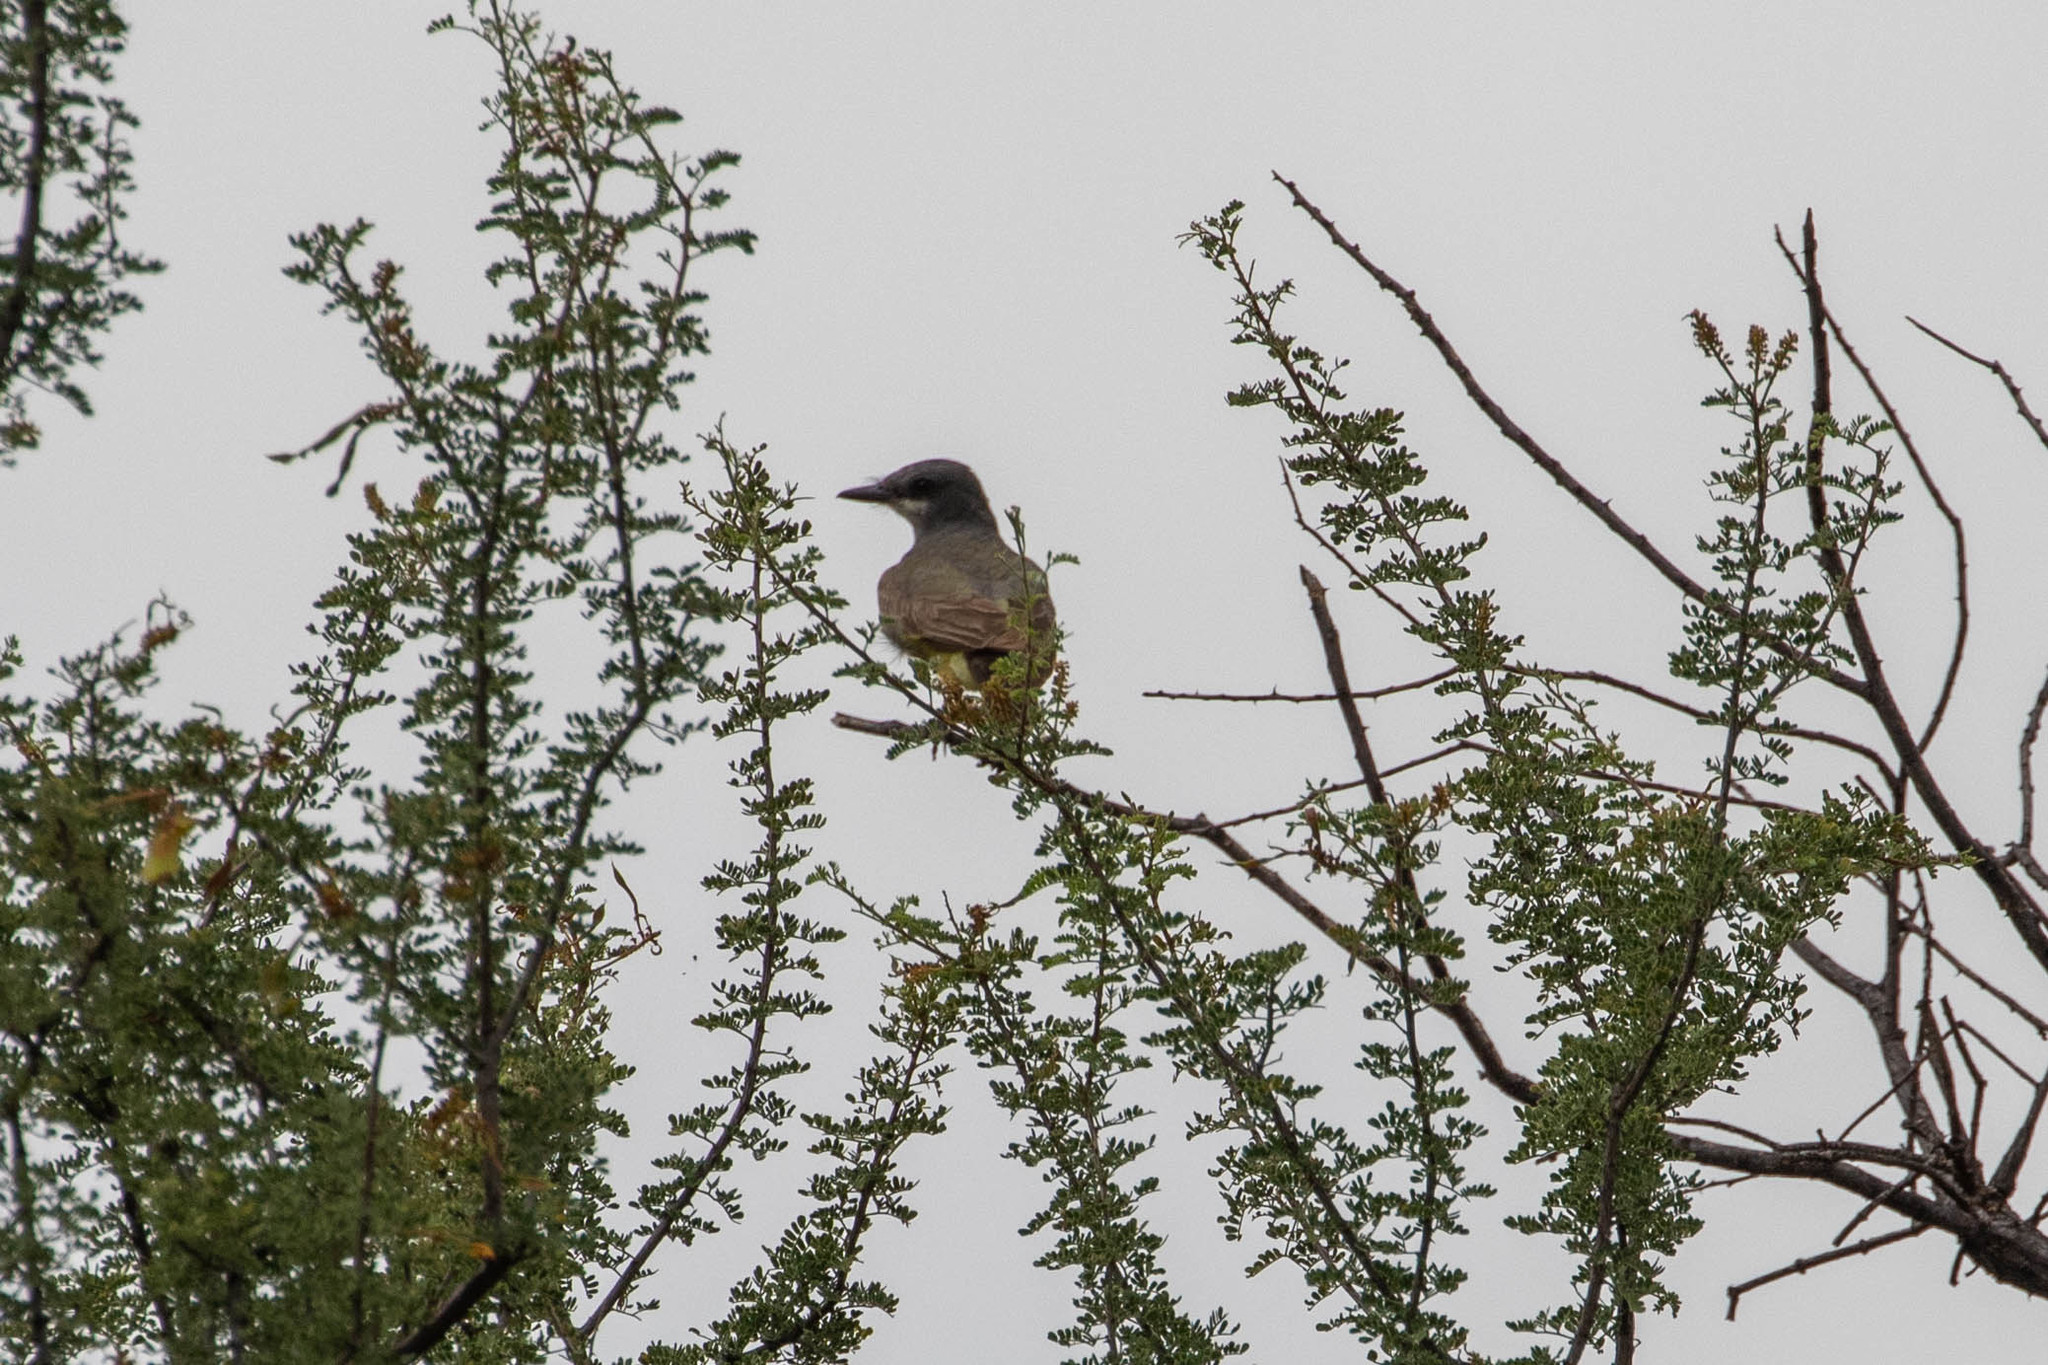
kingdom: Animalia
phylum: Chordata
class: Aves
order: Passeriformes
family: Tyrannidae
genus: Tyrannus
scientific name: Tyrannus vociferans
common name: Cassin's kingbird
